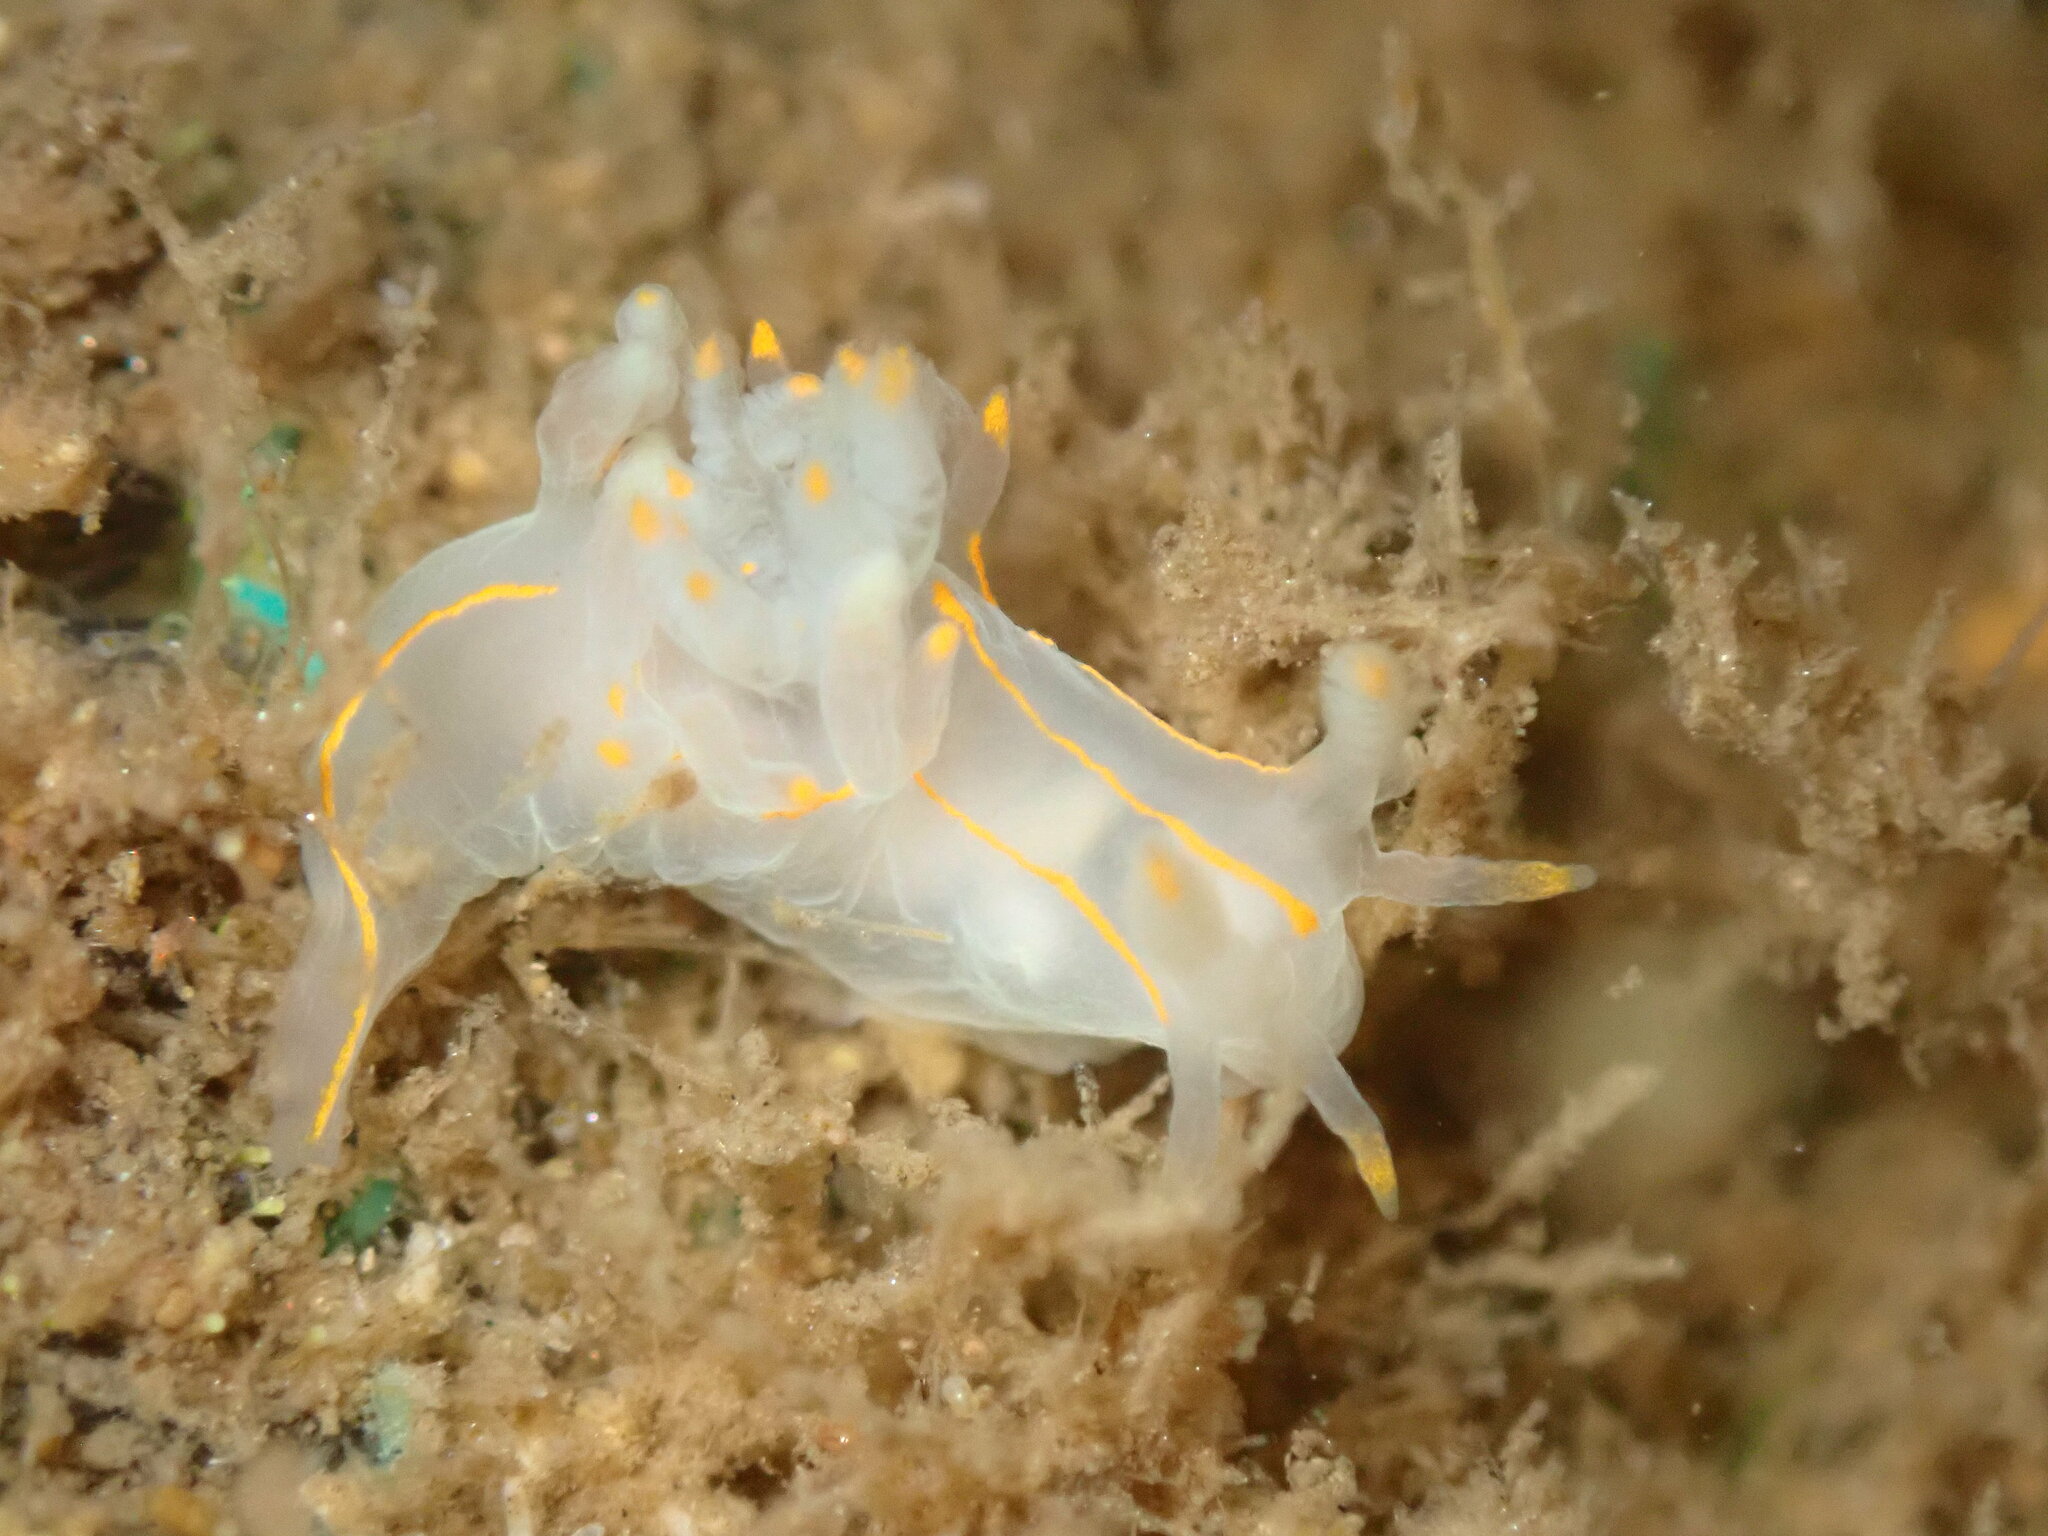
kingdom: Animalia
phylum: Mollusca
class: Gastropoda
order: Nudibranchia
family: Goniodorididae
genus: Ancula
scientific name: Ancula pacifica
